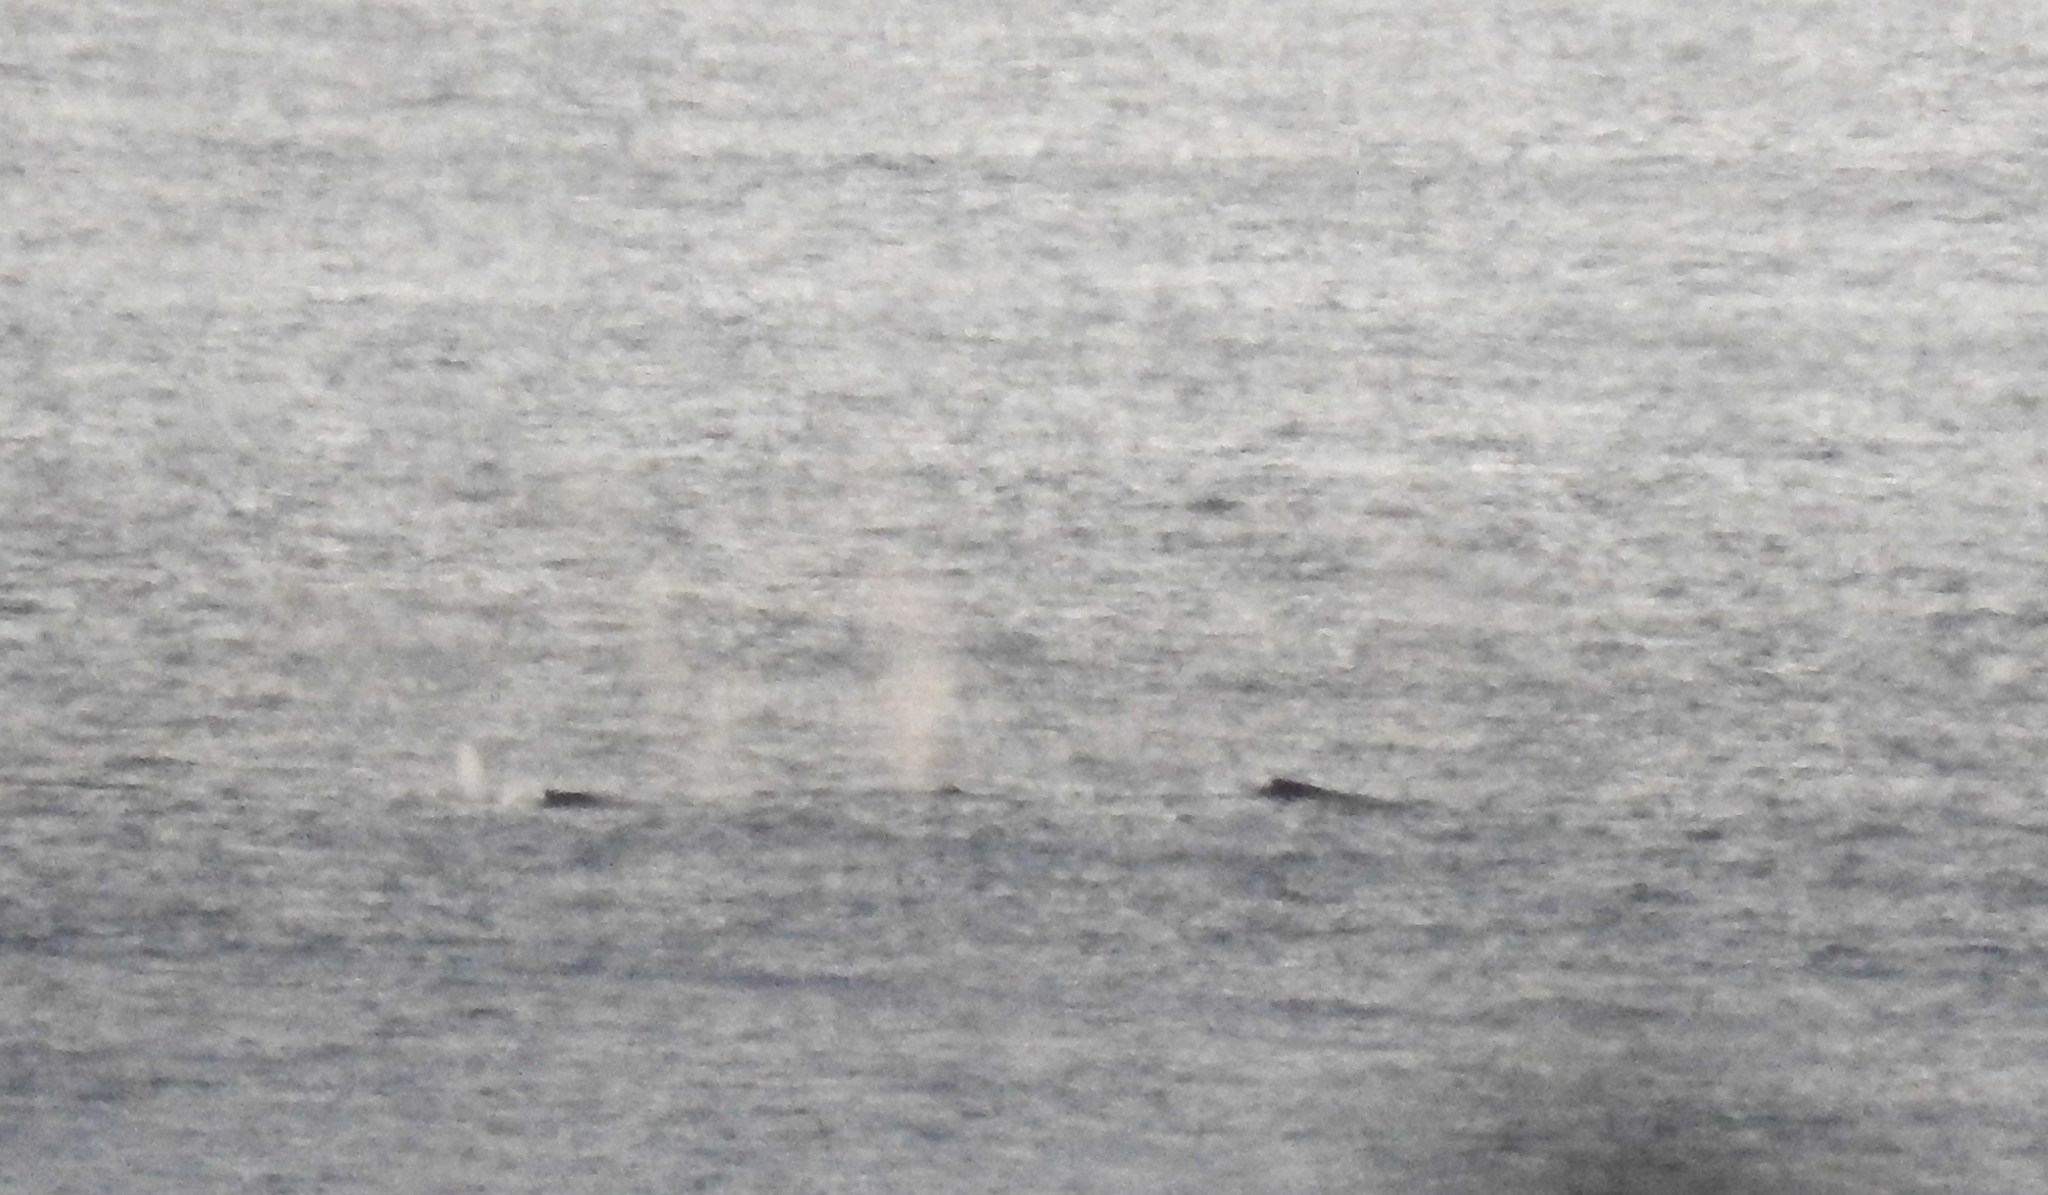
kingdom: Animalia
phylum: Chordata
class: Mammalia
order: Cetacea
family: Balaenopteridae
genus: Megaptera
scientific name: Megaptera novaeangliae
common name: Humpback whale
